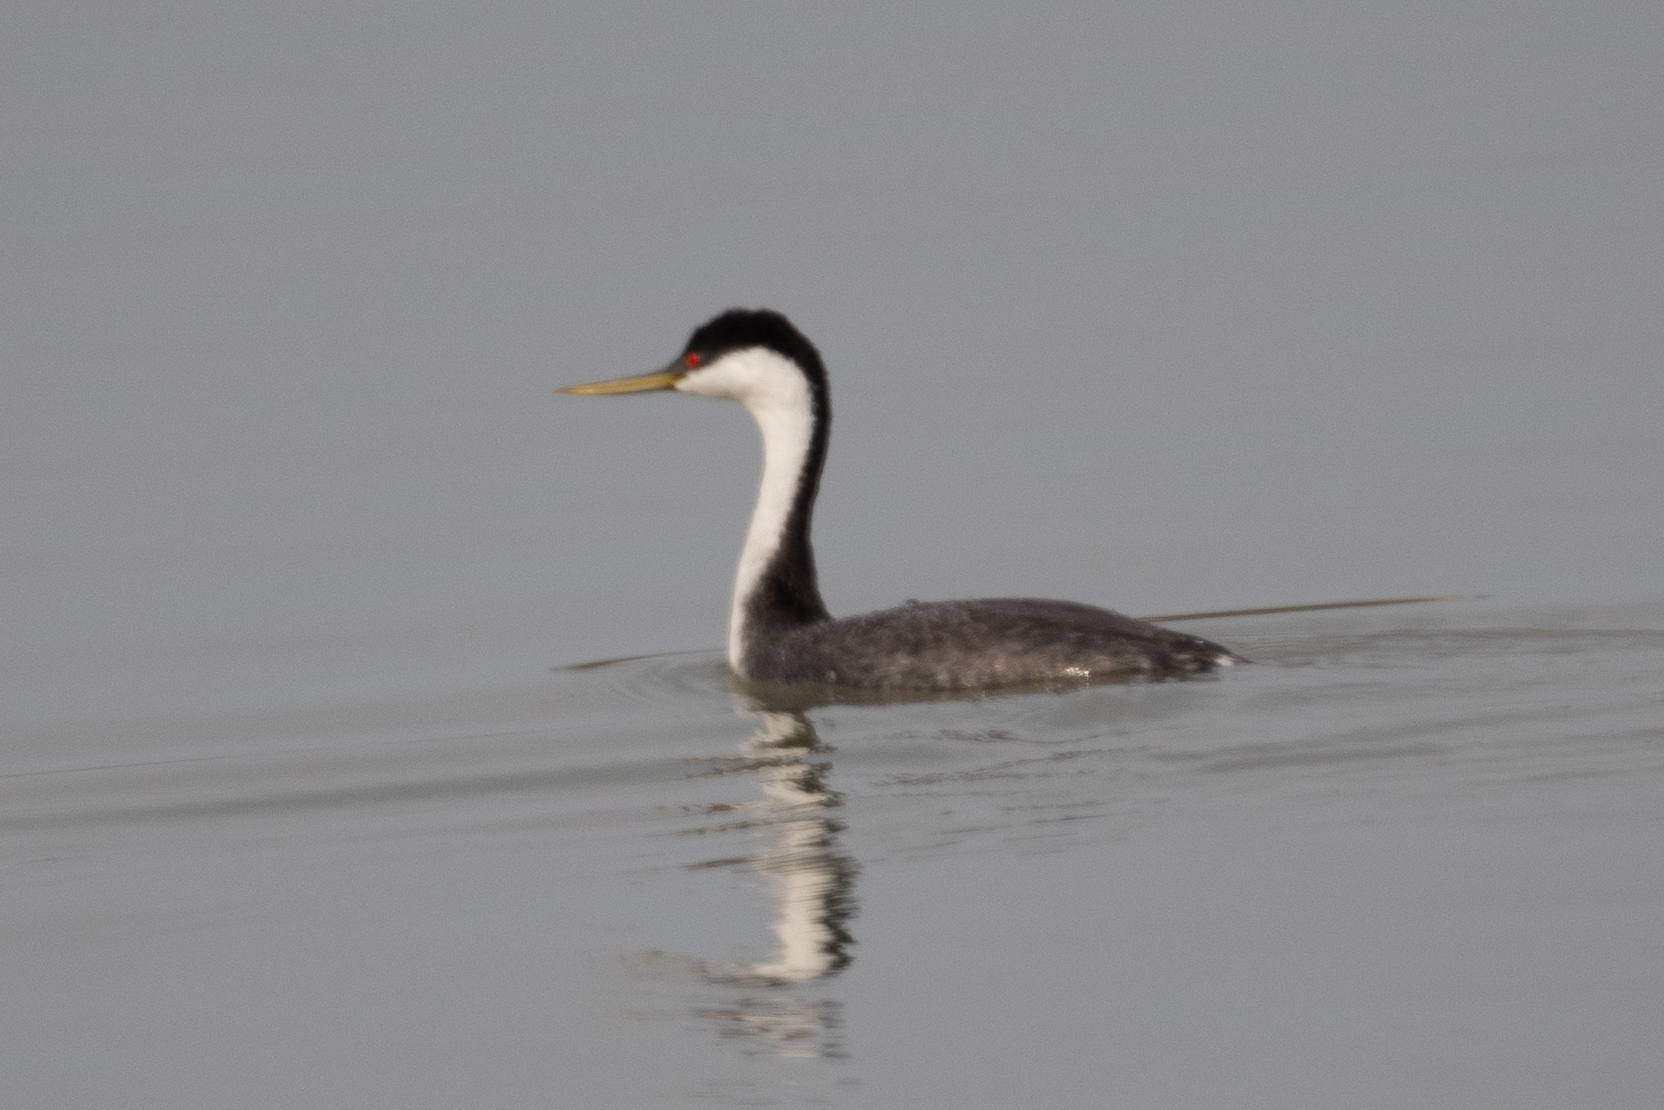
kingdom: Animalia
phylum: Chordata
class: Aves
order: Podicipediformes
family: Podicipedidae
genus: Aechmophorus
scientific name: Aechmophorus occidentalis
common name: Western grebe
